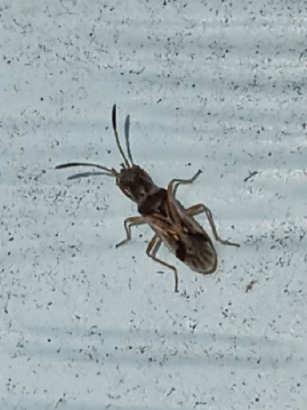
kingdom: Animalia
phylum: Arthropoda
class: Insecta
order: Hemiptera
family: Rhyparochromidae
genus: Pseudopachybrachius
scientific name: Pseudopachybrachius vinctus
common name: Dirt-colored seed bug
